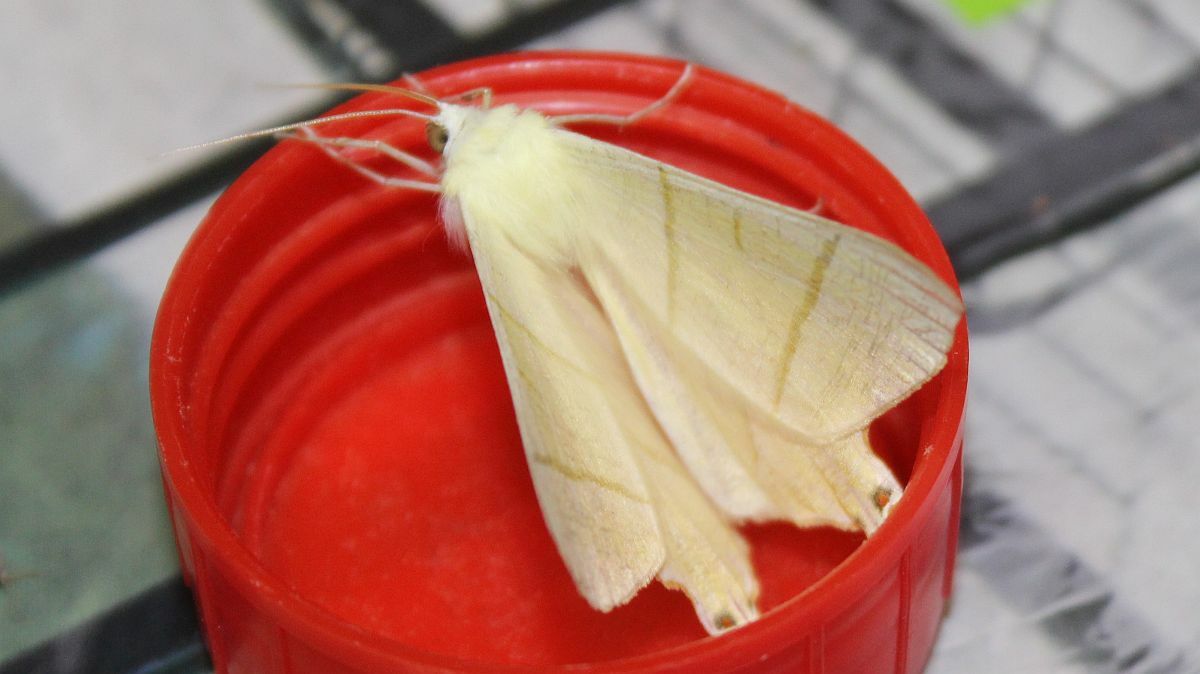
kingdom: Animalia
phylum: Arthropoda
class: Insecta
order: Lepidoptera
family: Geometridae
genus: Ourapteryx
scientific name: Ourapteryx sambucaria
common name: Swallow-tailed moth
